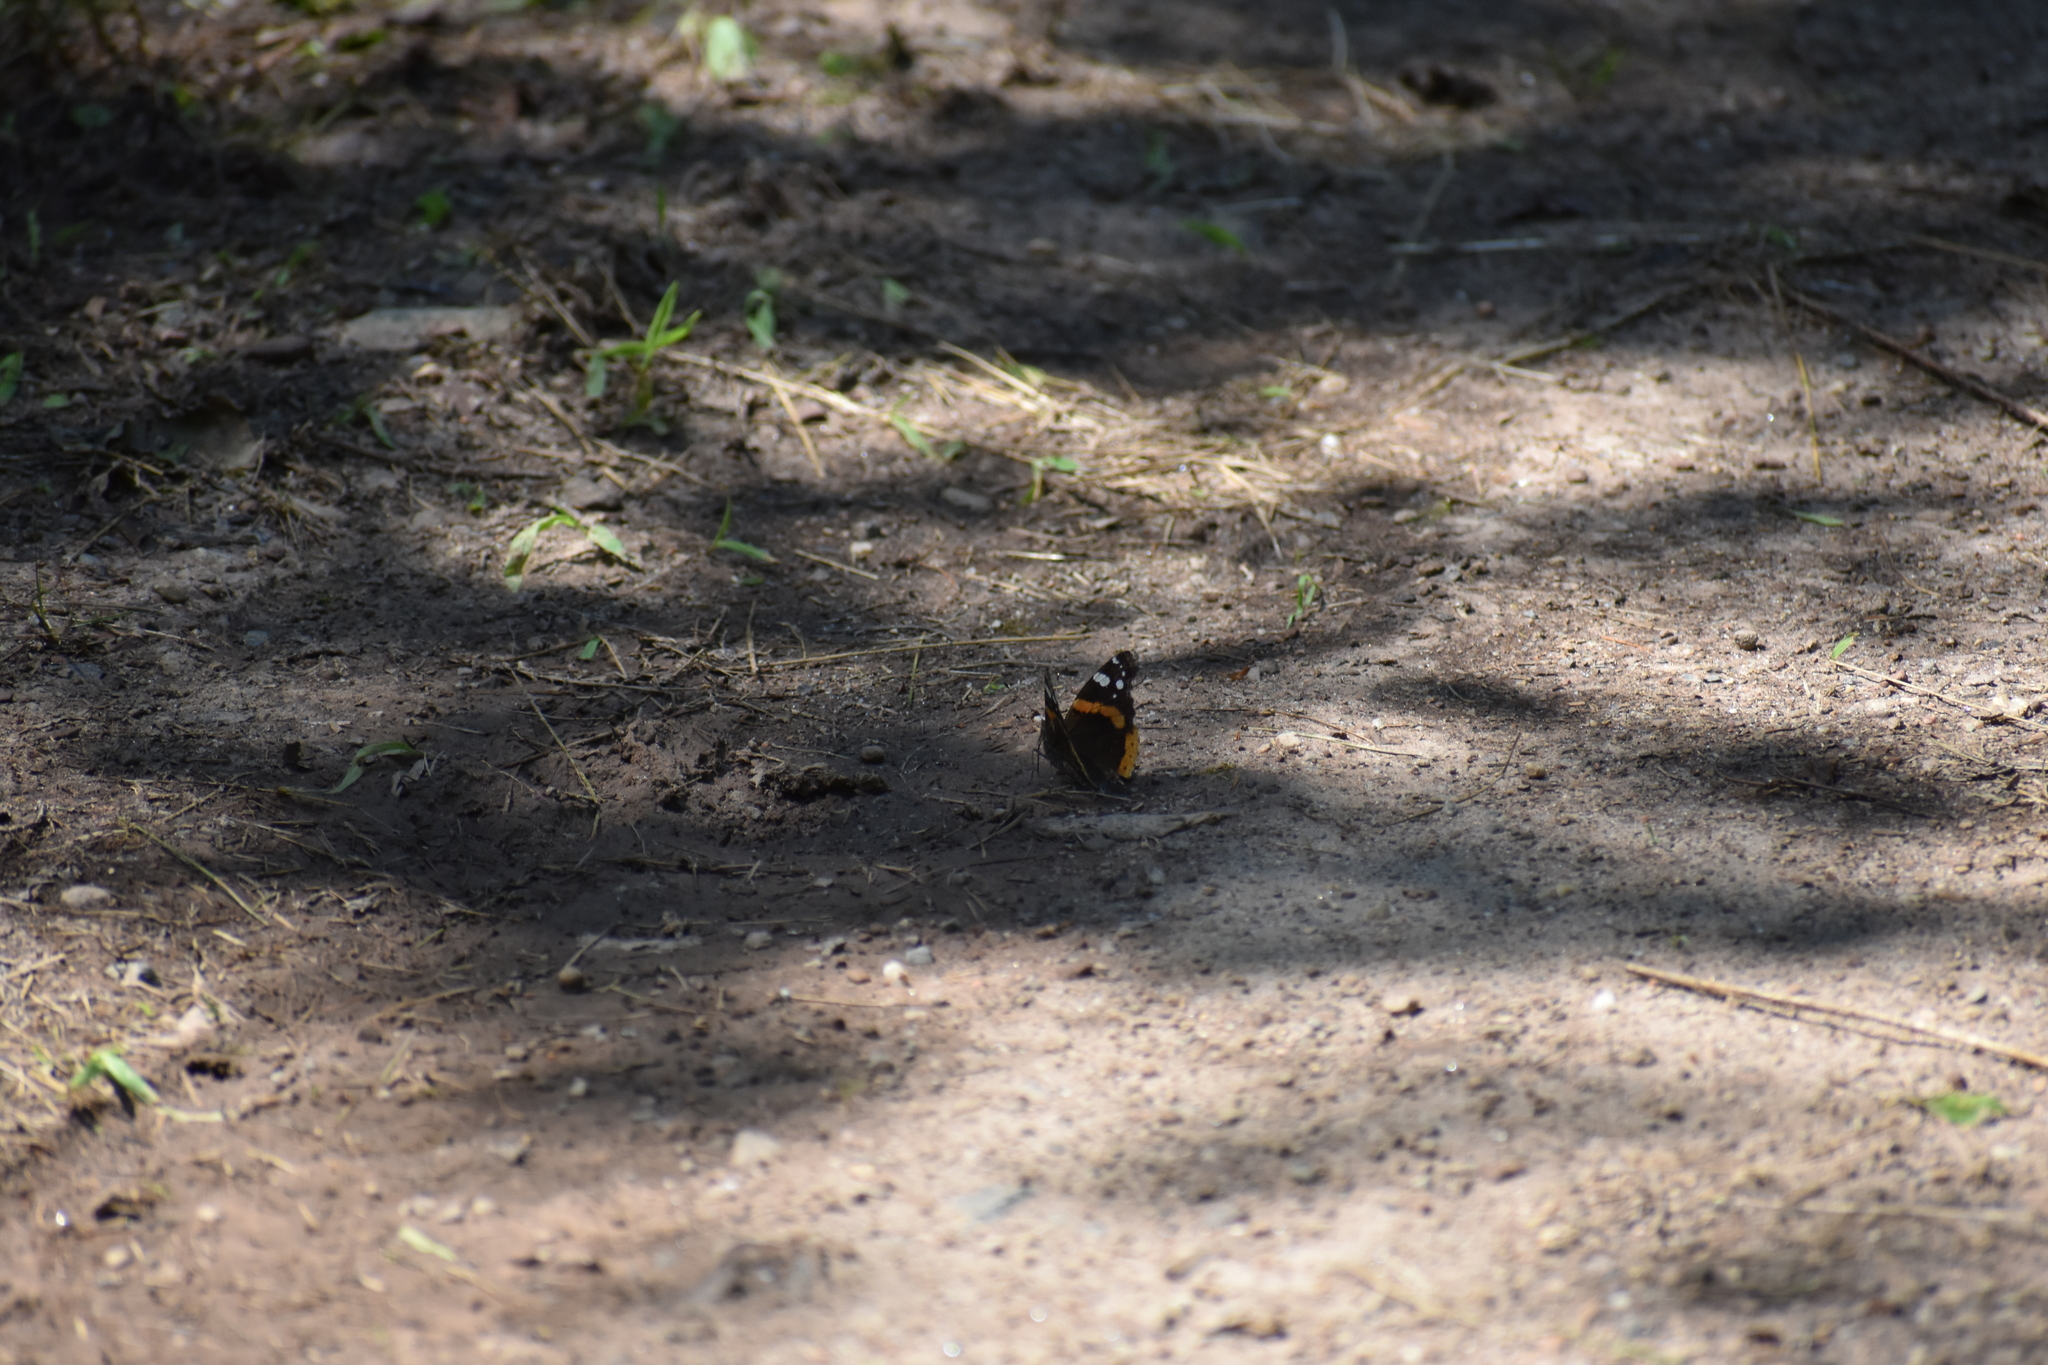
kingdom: Animalia
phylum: Arthropoda
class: Insecta
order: Lepidoptera
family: Nymphalidae
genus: Vanessa
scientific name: Vanessa atalanta
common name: Red admiral
